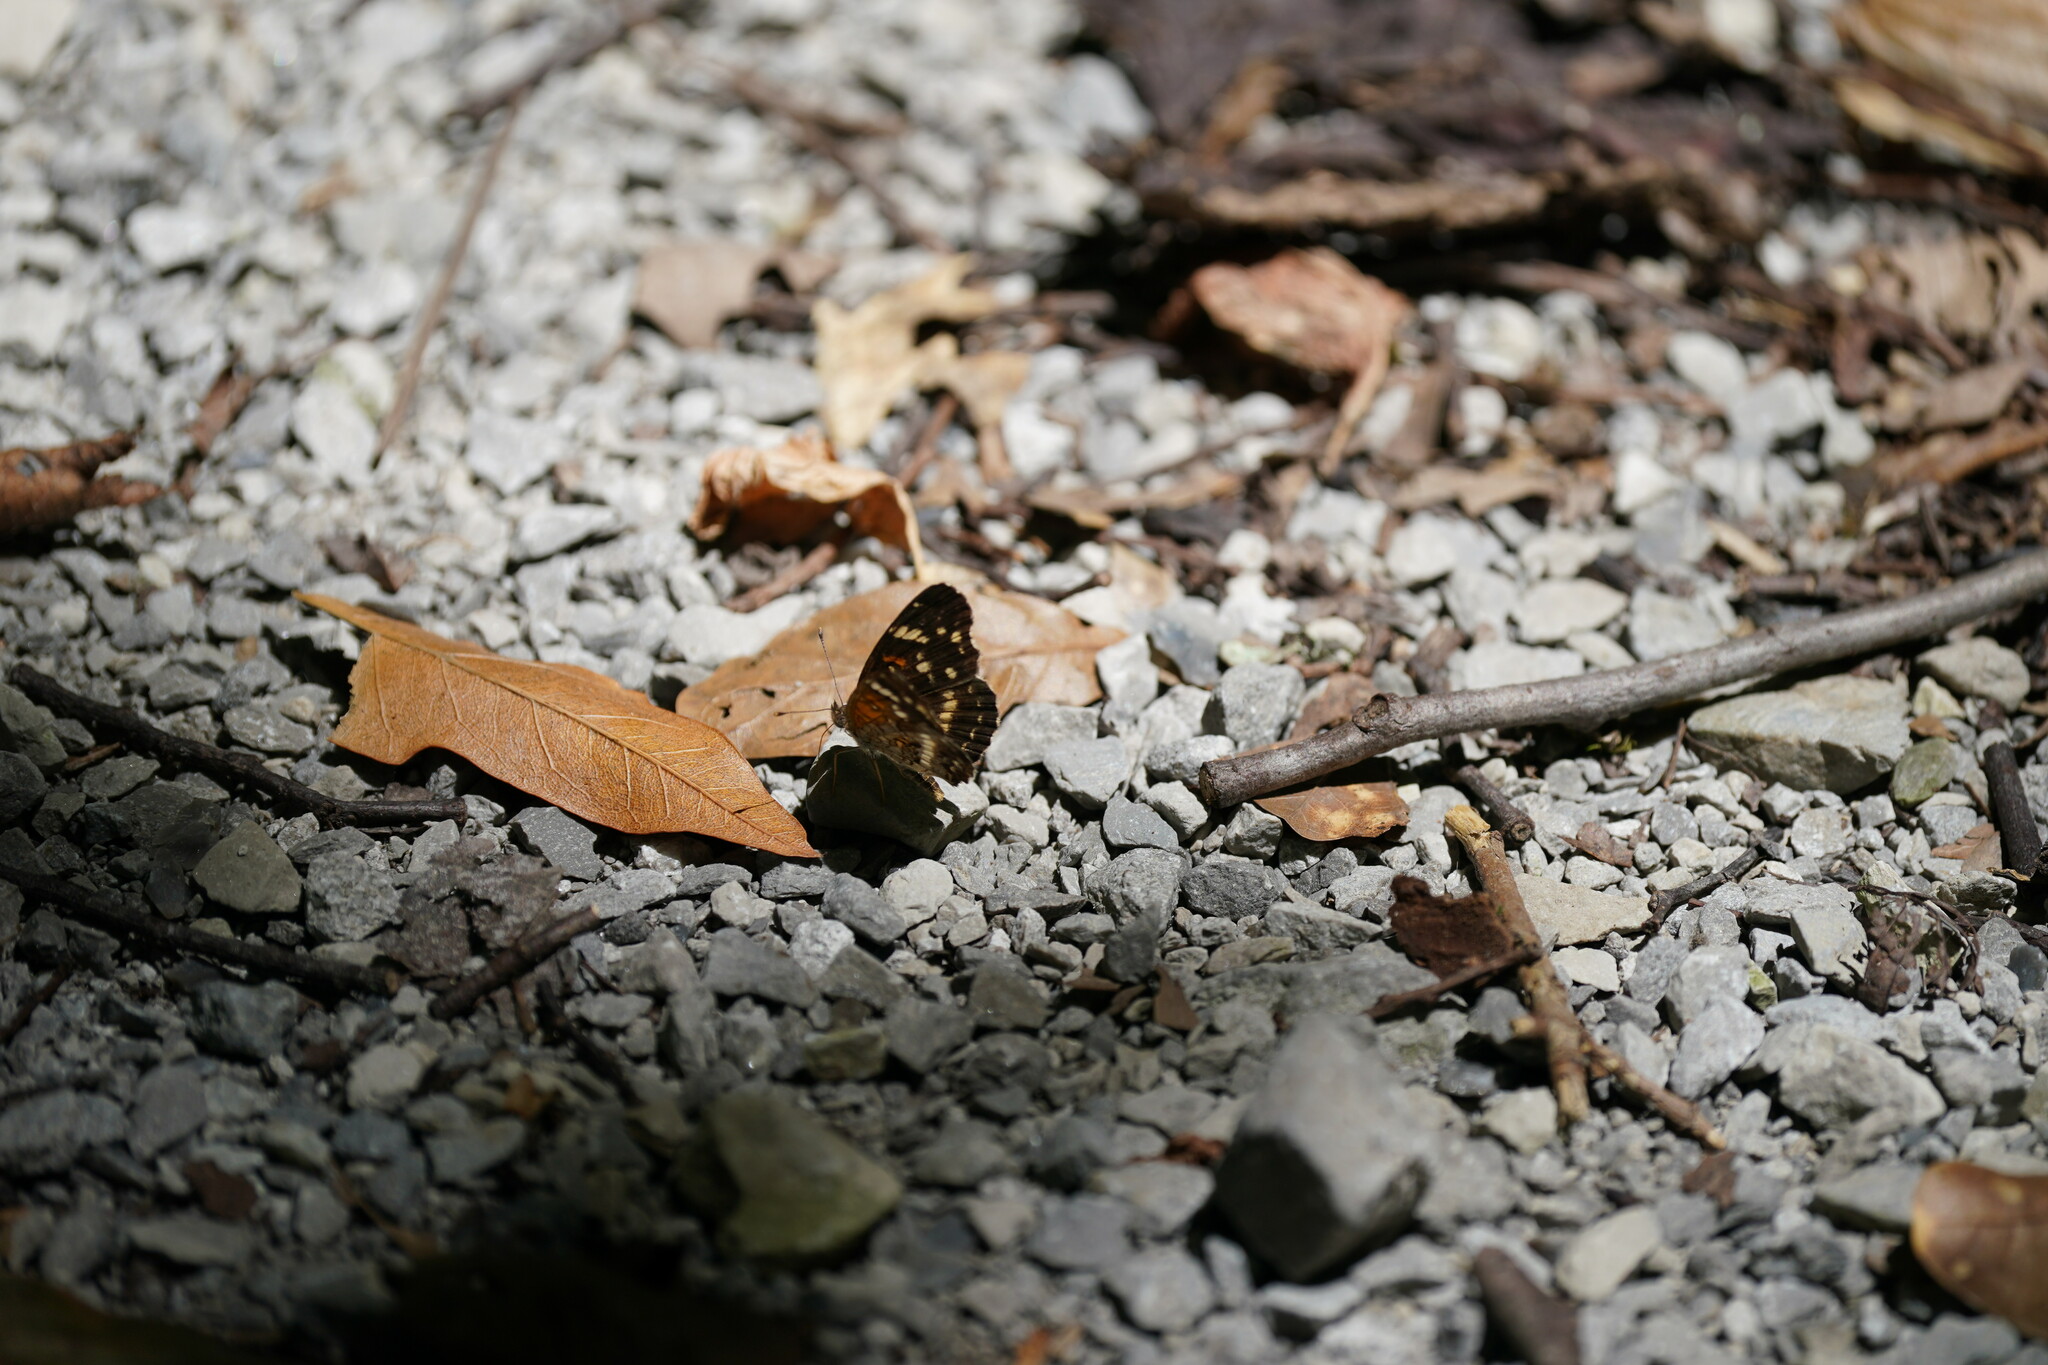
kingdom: Animalia
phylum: Arthropoda
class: Insecta
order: Lepidoptera
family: Nymphalidae
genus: Anthanassa
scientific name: Anthanassa taxana
